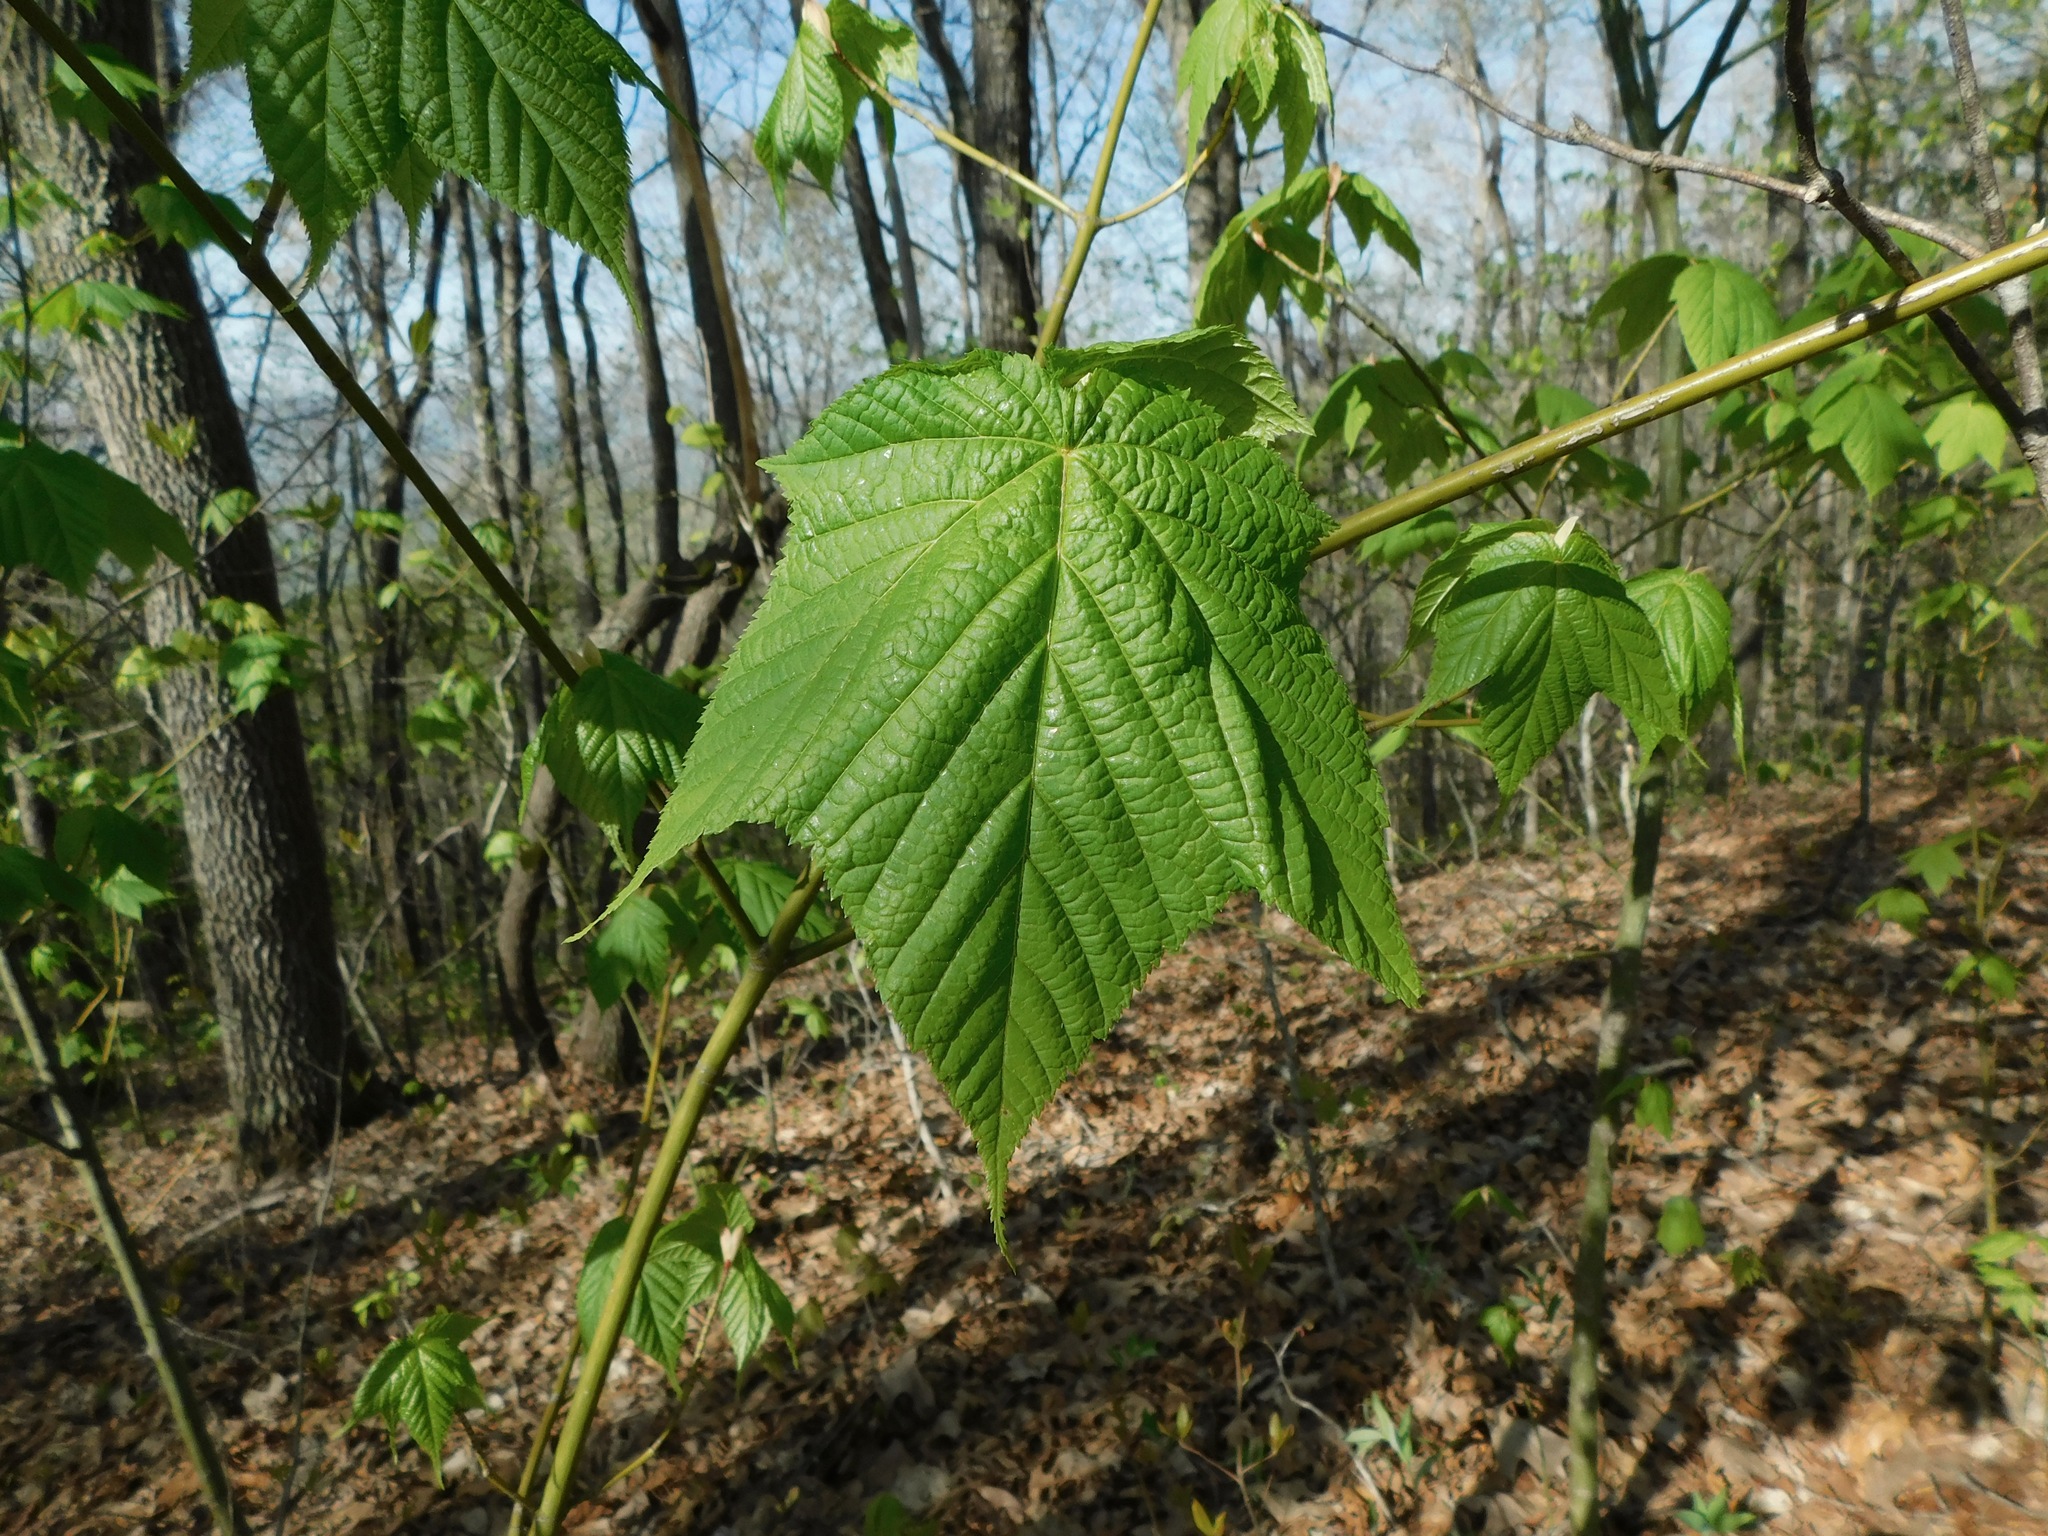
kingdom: Plantae
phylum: Tracheophyta
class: Magnoliopsida
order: Sapindales
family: Sapindaceae
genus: Acer
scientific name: Acer pensylvanicum
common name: Moosewood
